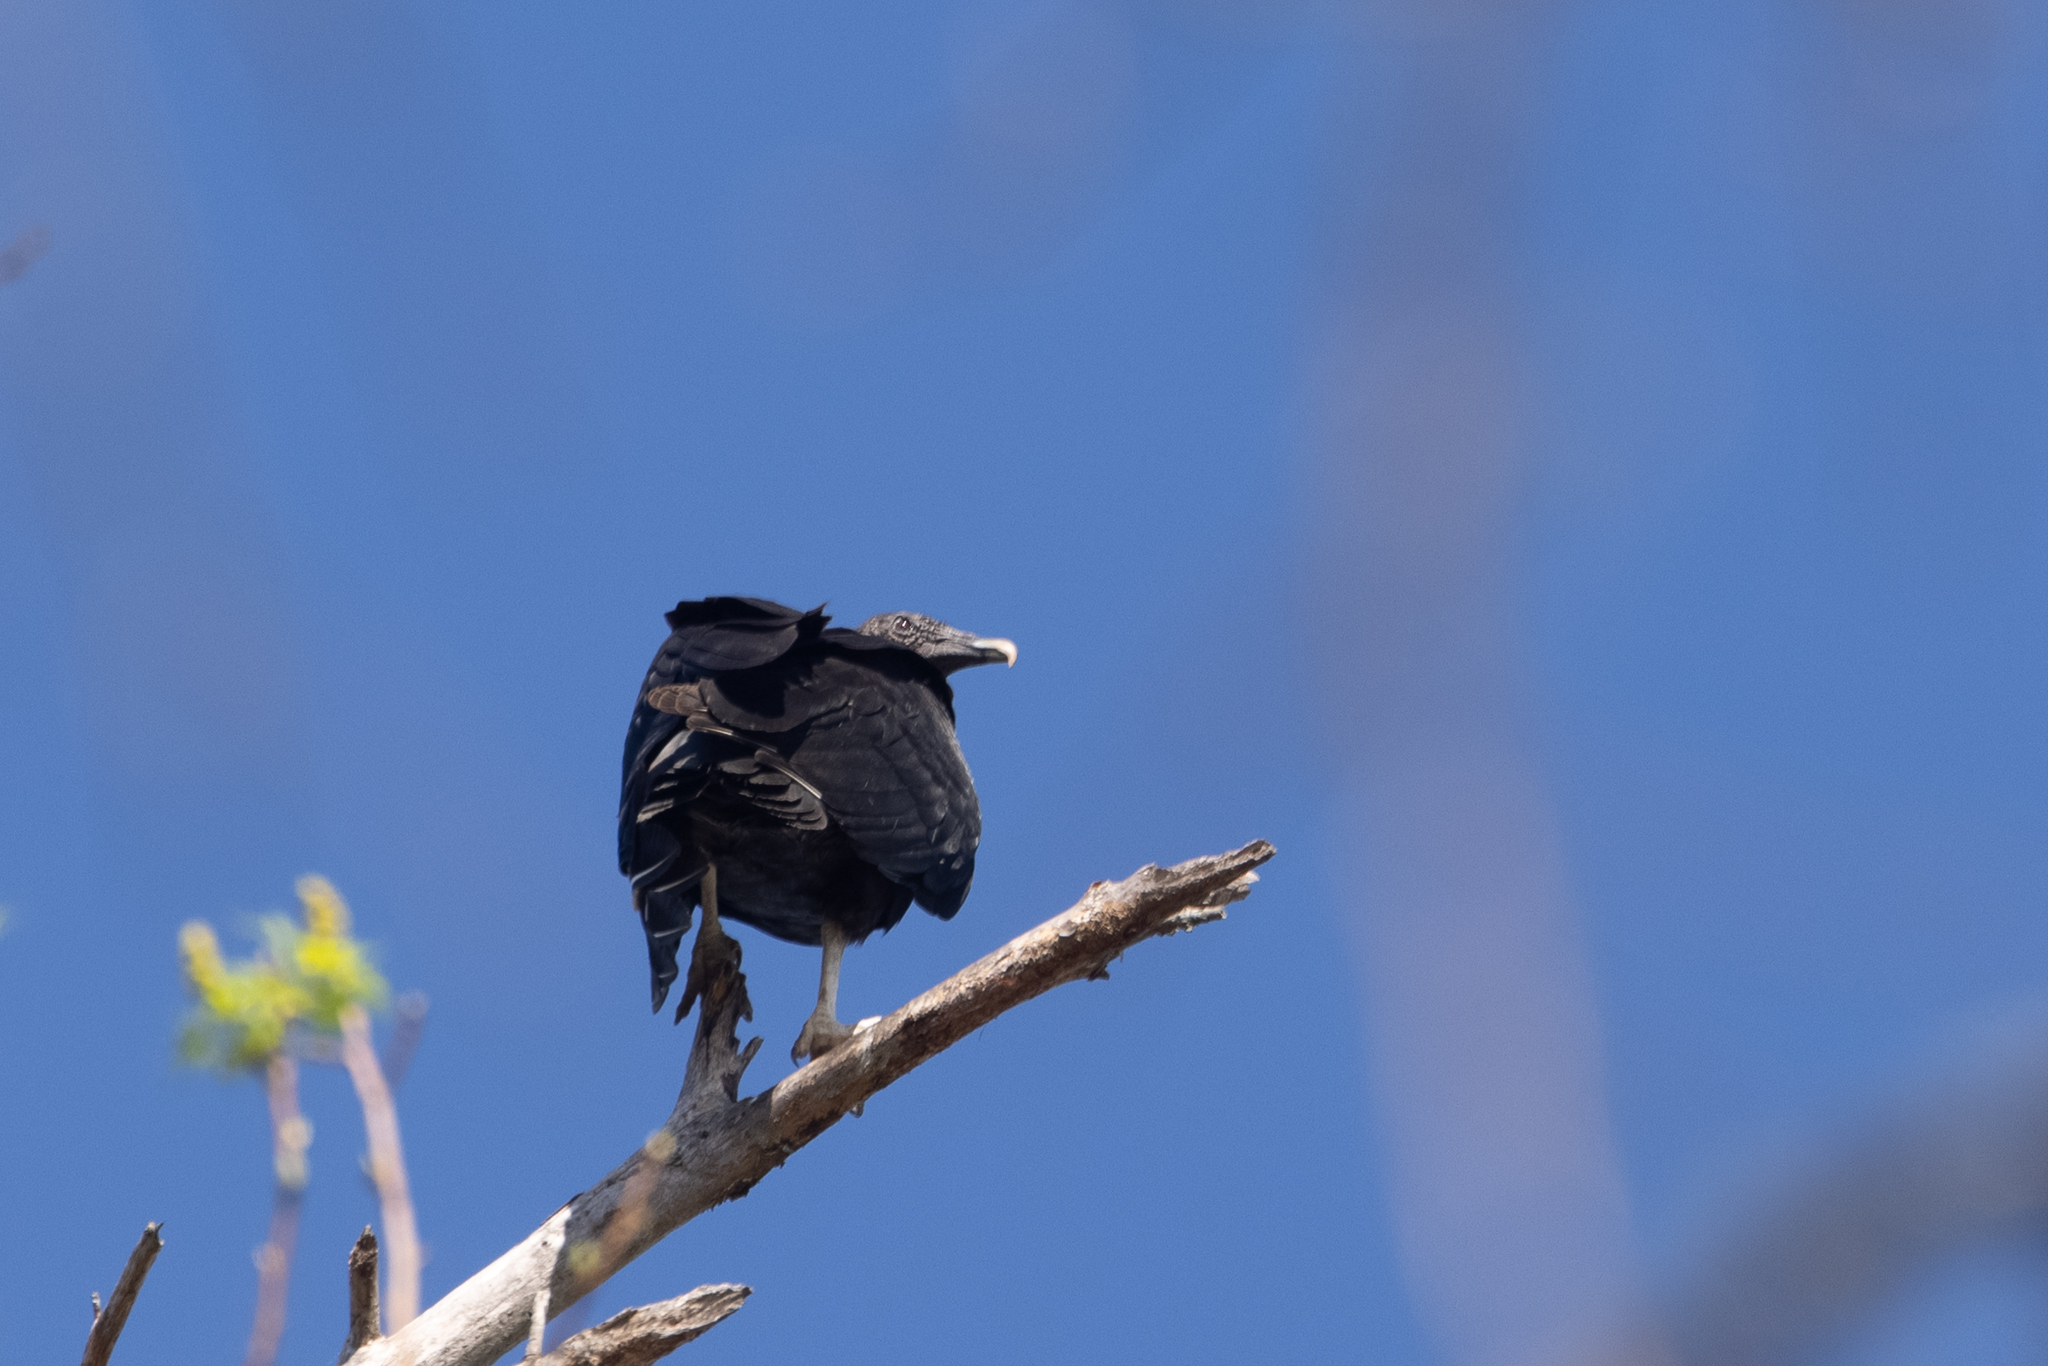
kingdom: Animalia
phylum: Chordata
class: Aves
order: Accipitriformes
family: Cathartidae
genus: Coragyps
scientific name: Coragyps atratus
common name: Black vulture
